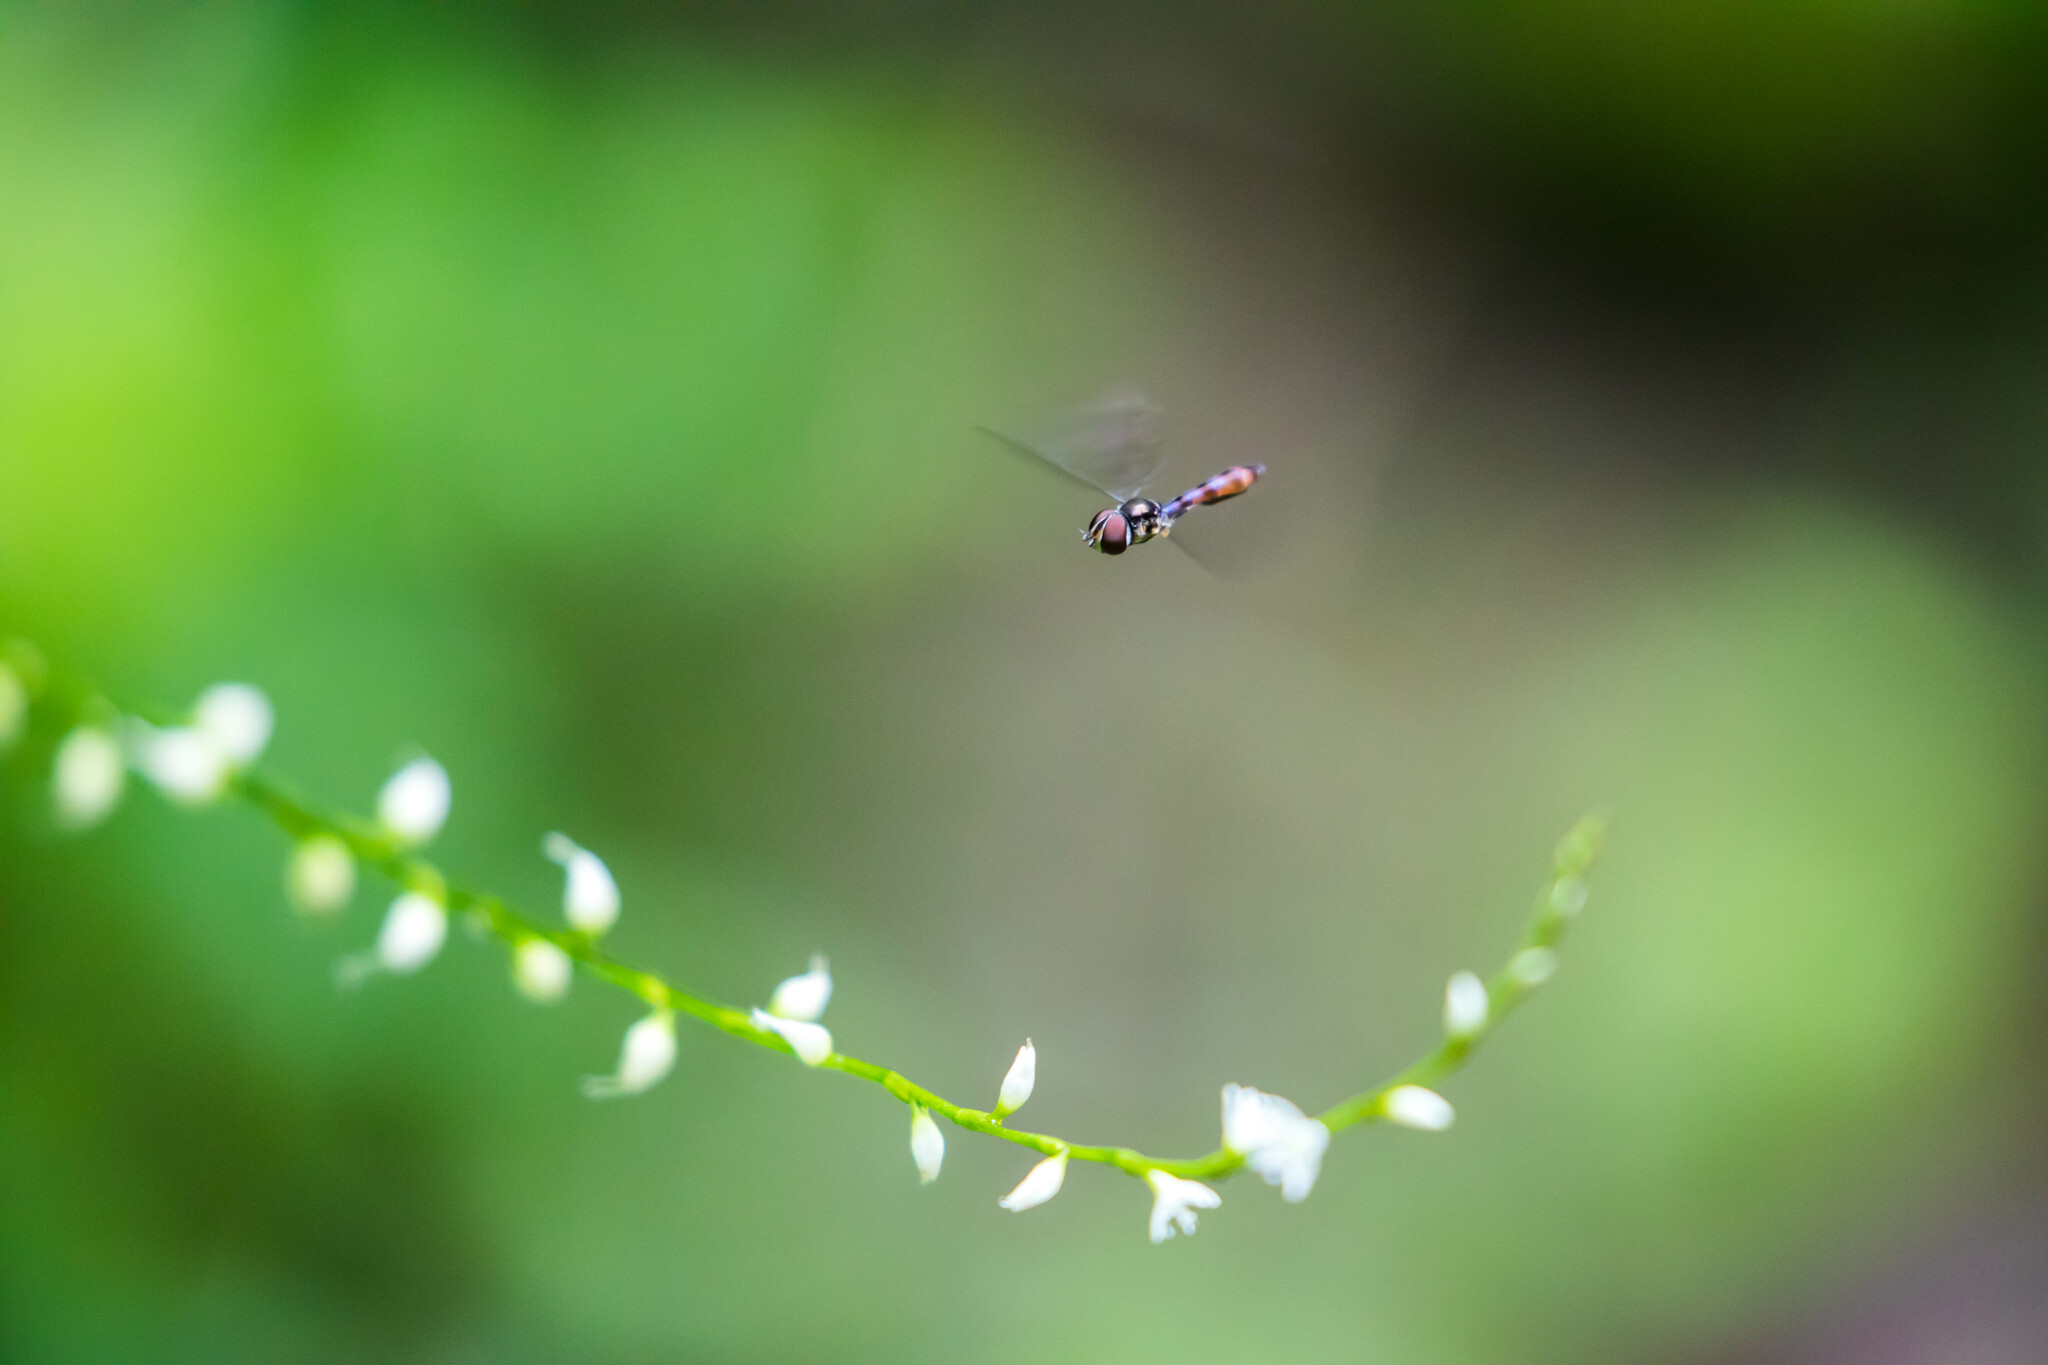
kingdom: Animalia
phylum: Arthropoda
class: Insecta
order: Diptera
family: Syrphidae
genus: Ocyptamus
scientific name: Ocyptamus fuscipennis
